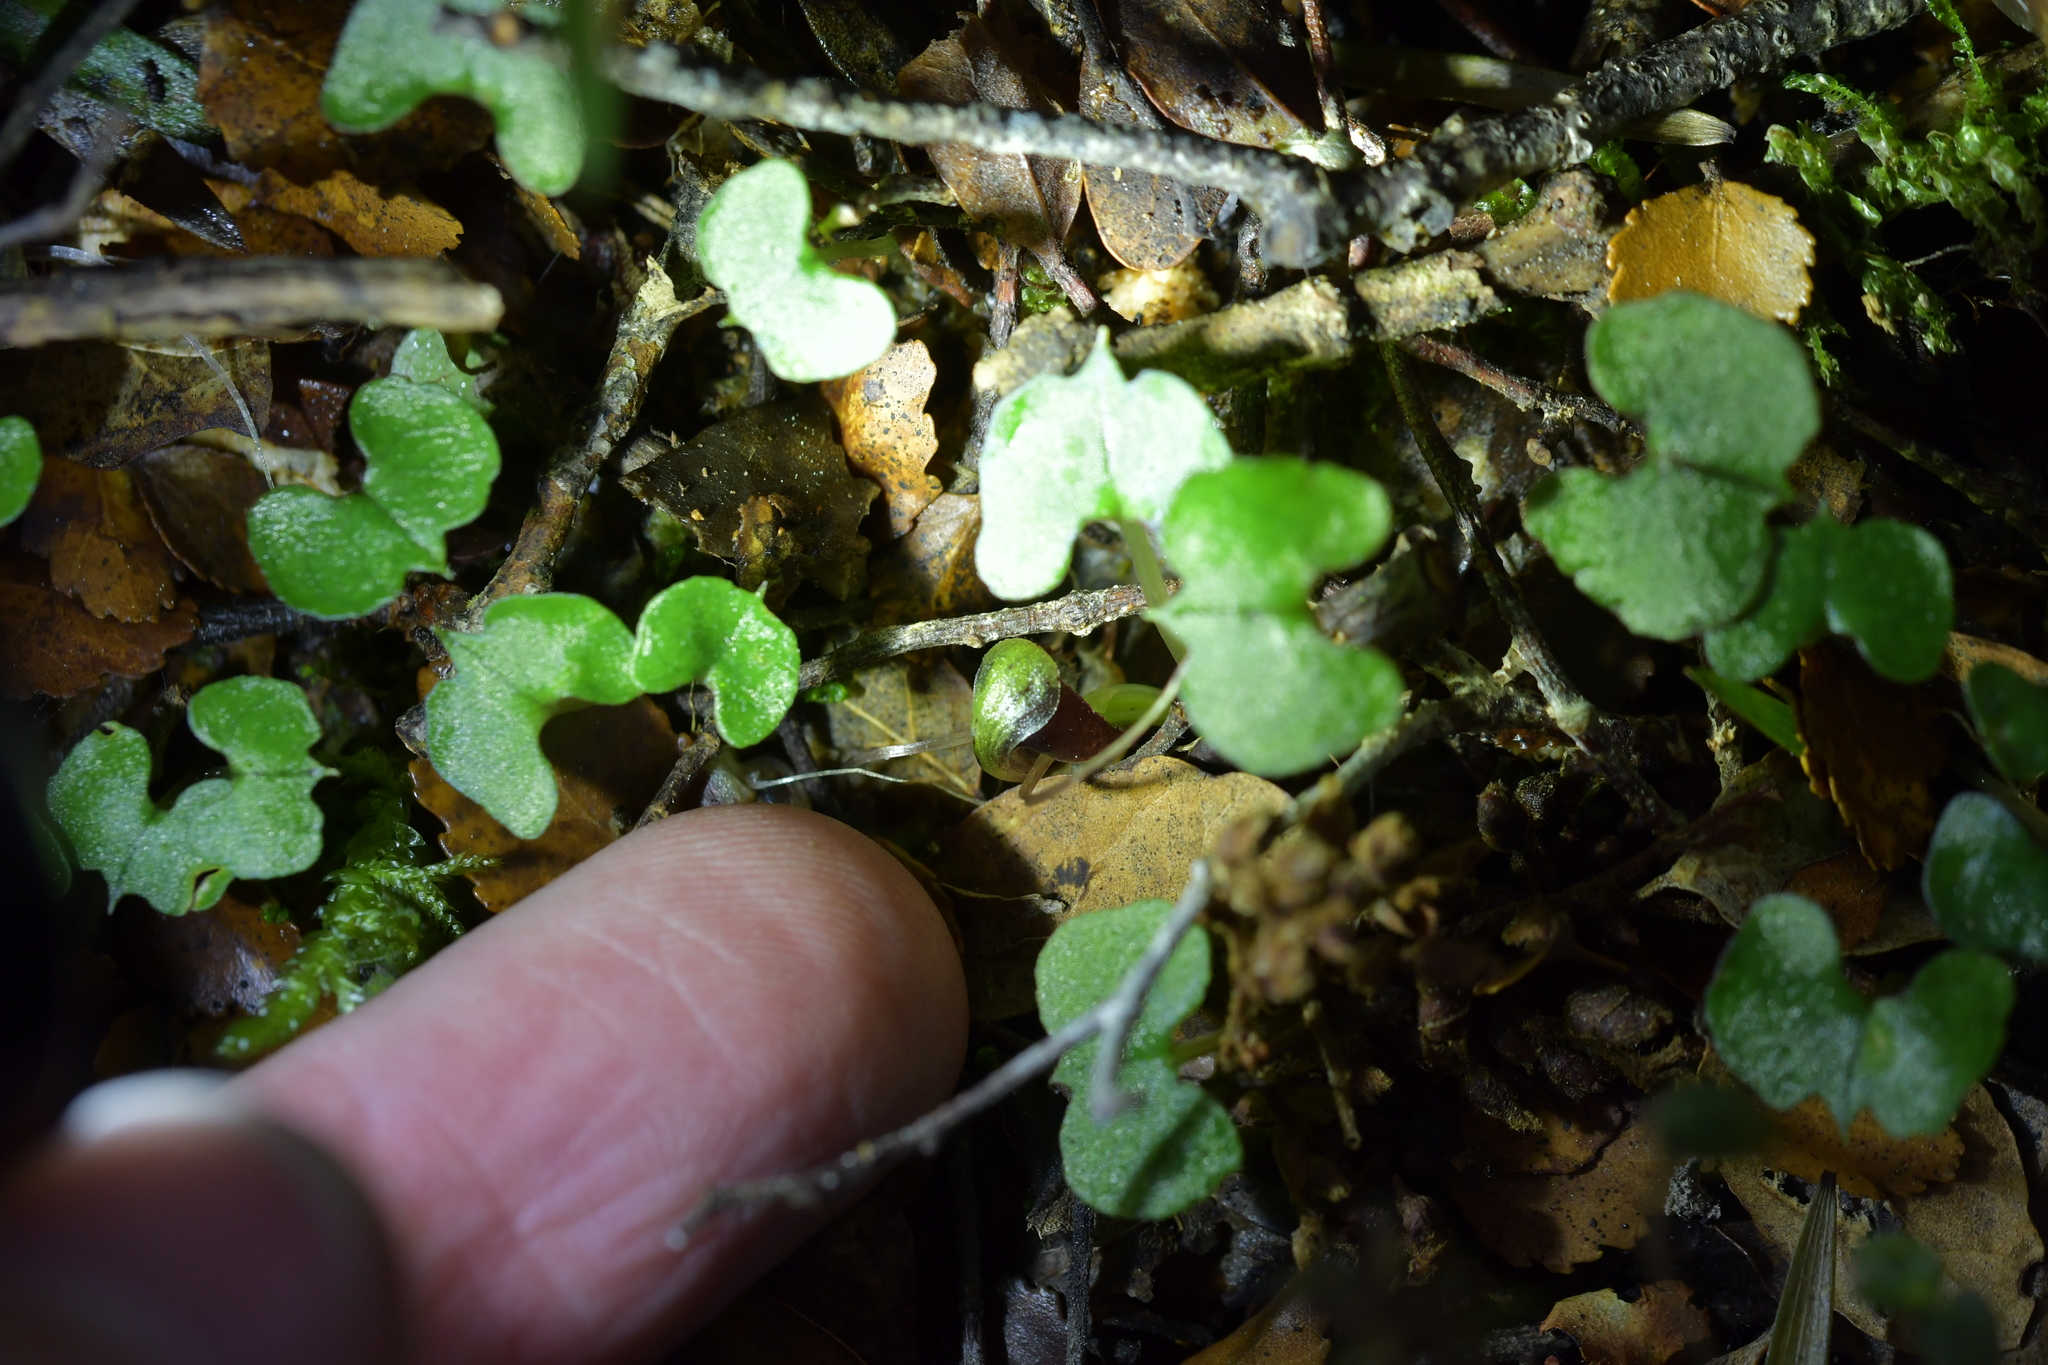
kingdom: Plantae
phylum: Tracheophyta
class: Liliopsida
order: Asparagales
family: Orchidaceae
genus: Corybas
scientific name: Corybas hypogaeus
